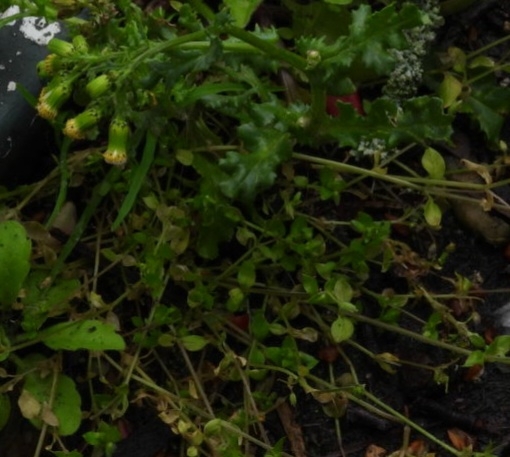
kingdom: Plantae
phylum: Tracheophyta
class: Magnoliopsida
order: Asterales
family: Asteraceae
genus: Senecio
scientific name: Senecio vulgaris
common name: Old-man-in-the-spring
